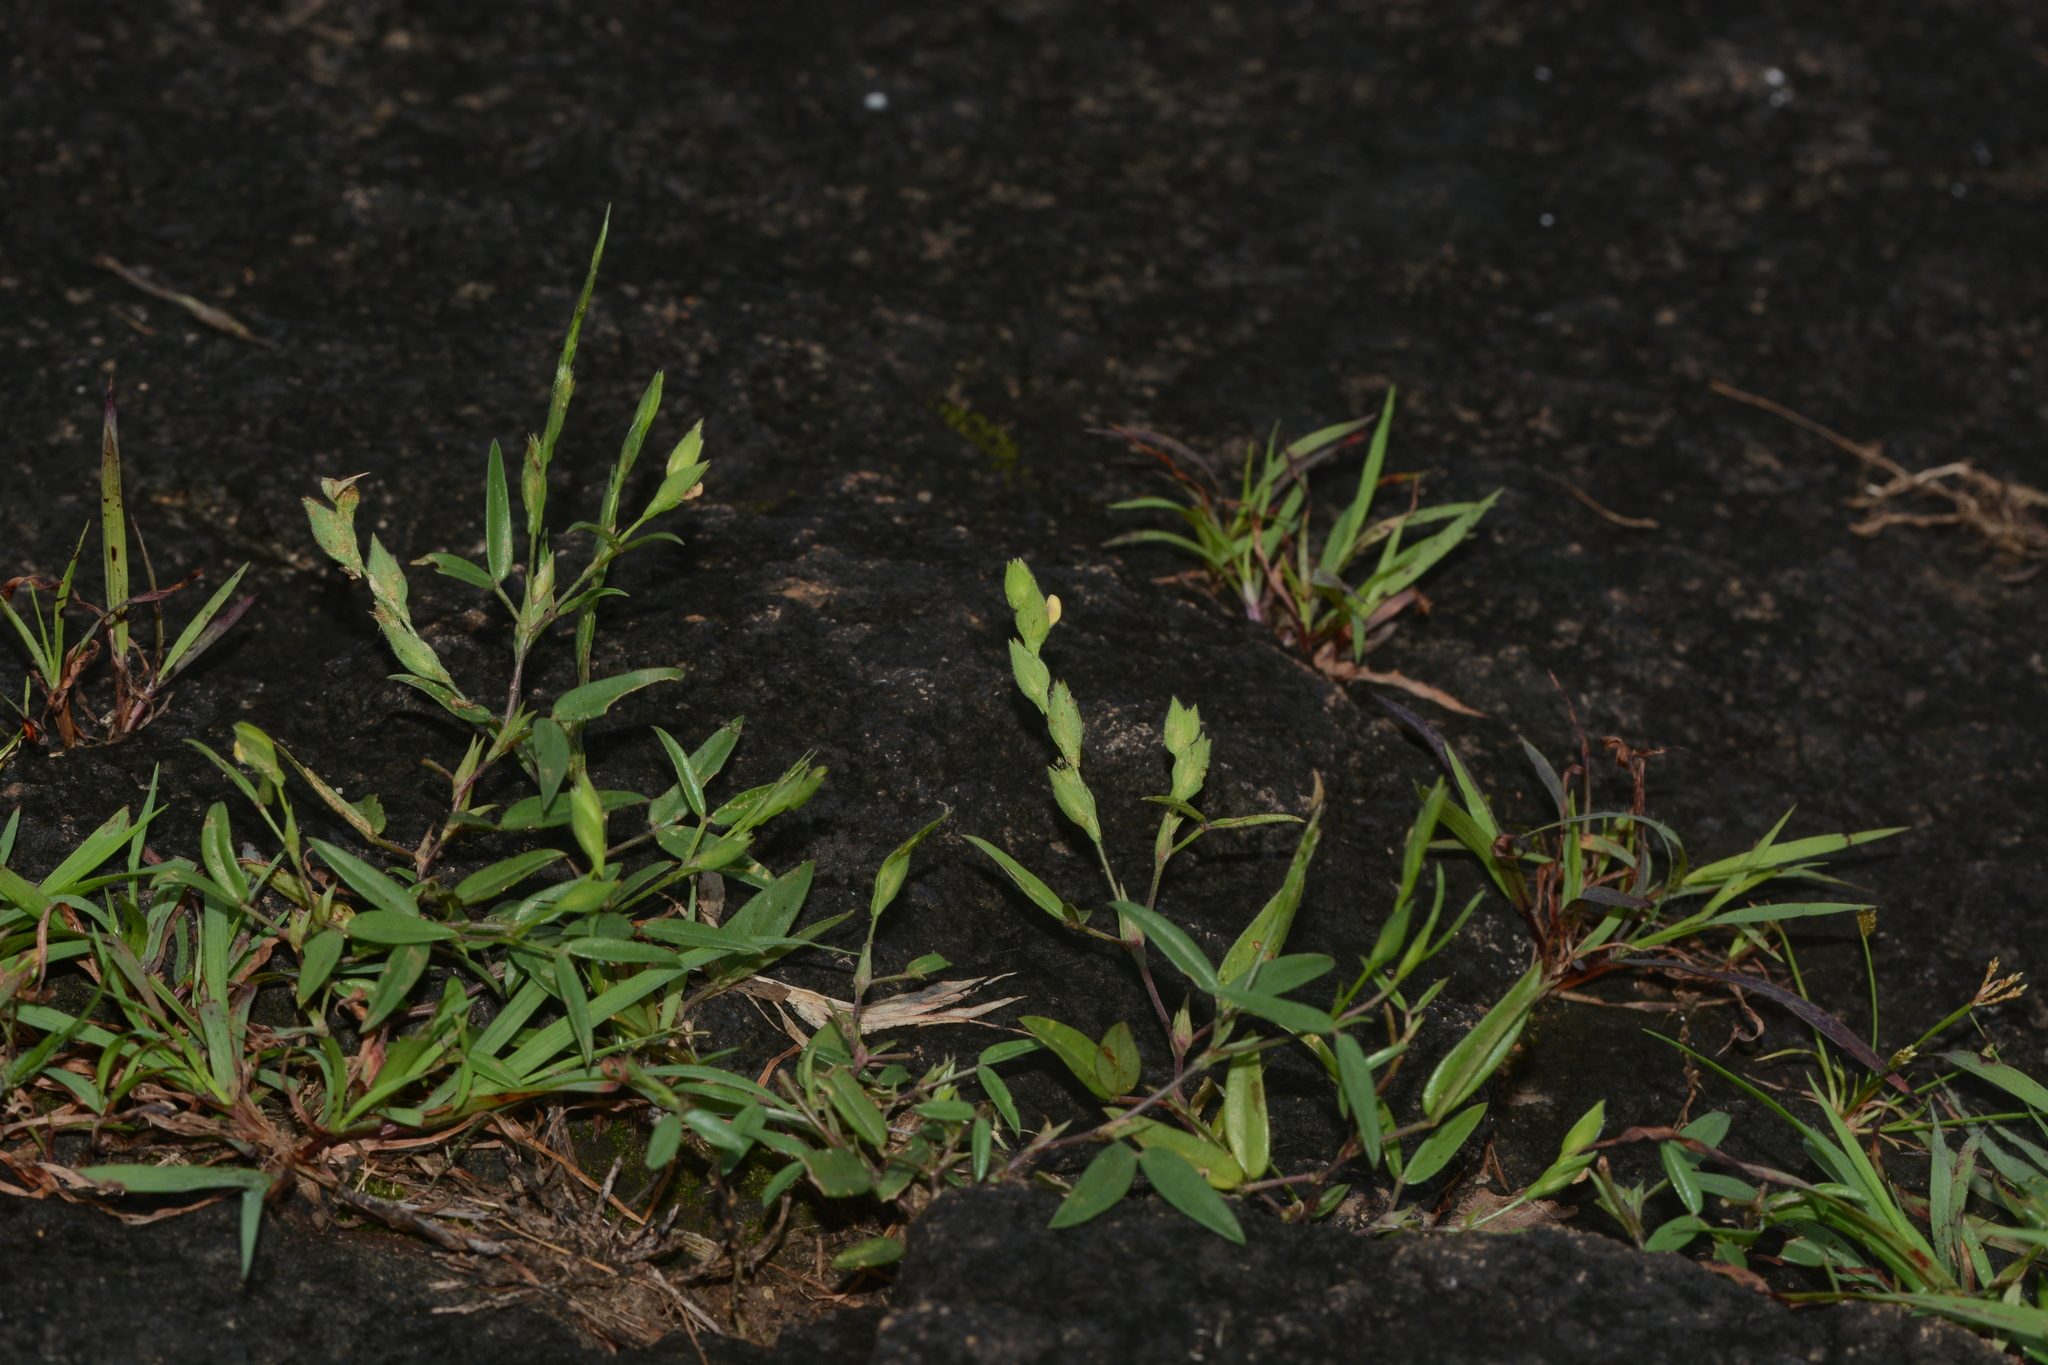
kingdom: Plantae
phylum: Tracheophyta
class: Magnoliopsida
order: Fabales
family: Fabaceae
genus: Zornia
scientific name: Zornia gibbosa
